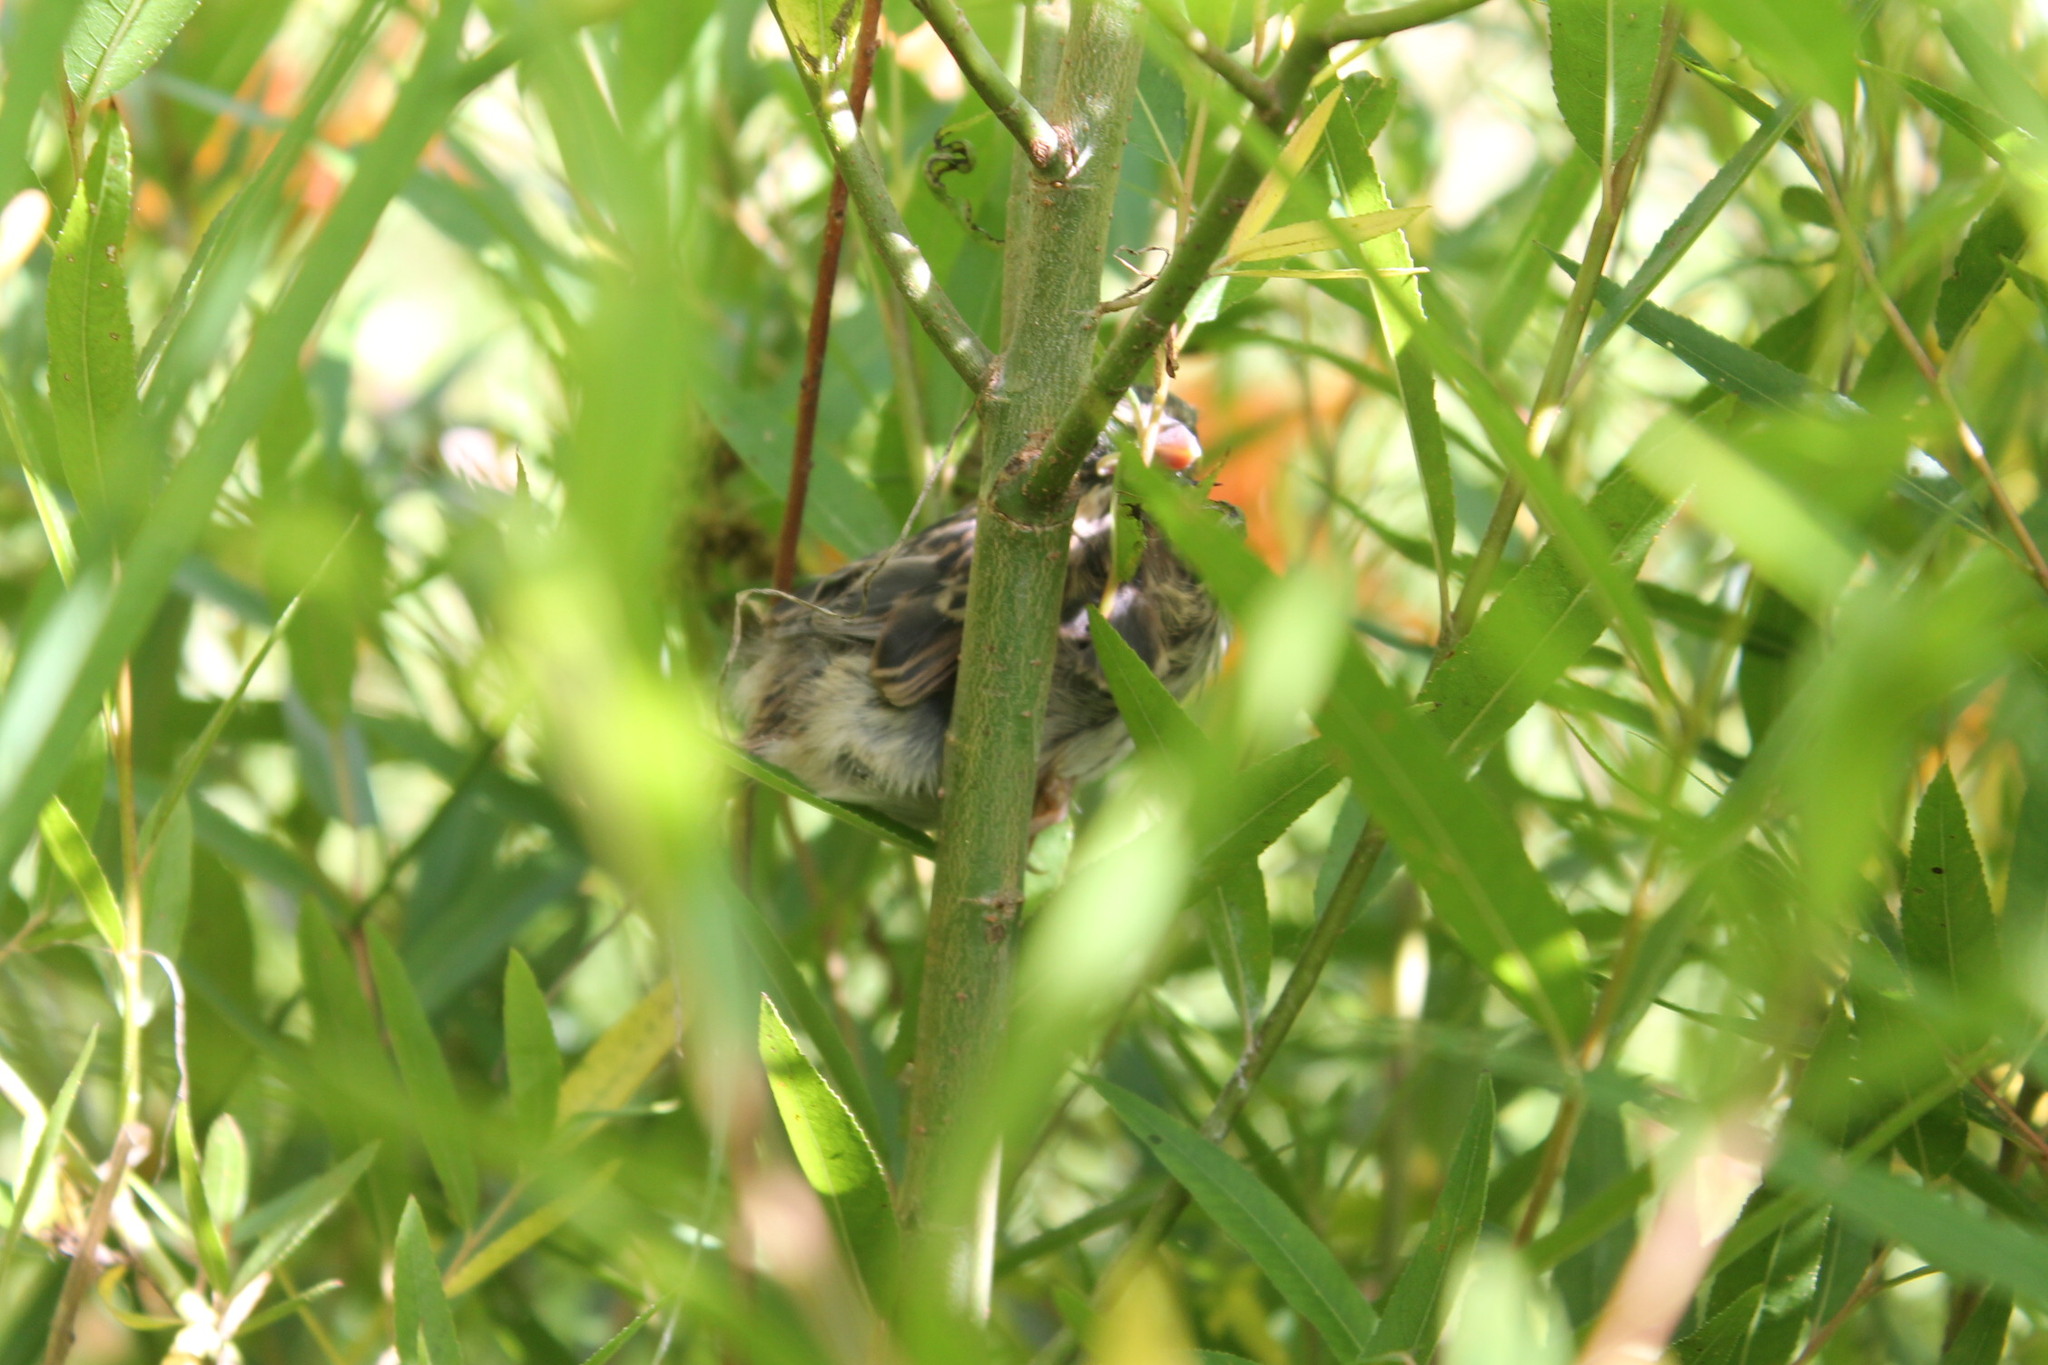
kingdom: Animalia
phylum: Chordata
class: Aves
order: Passeriformes
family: Passerellidae
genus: Melospiza
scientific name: Melospiza melodia
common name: Song sparrow
